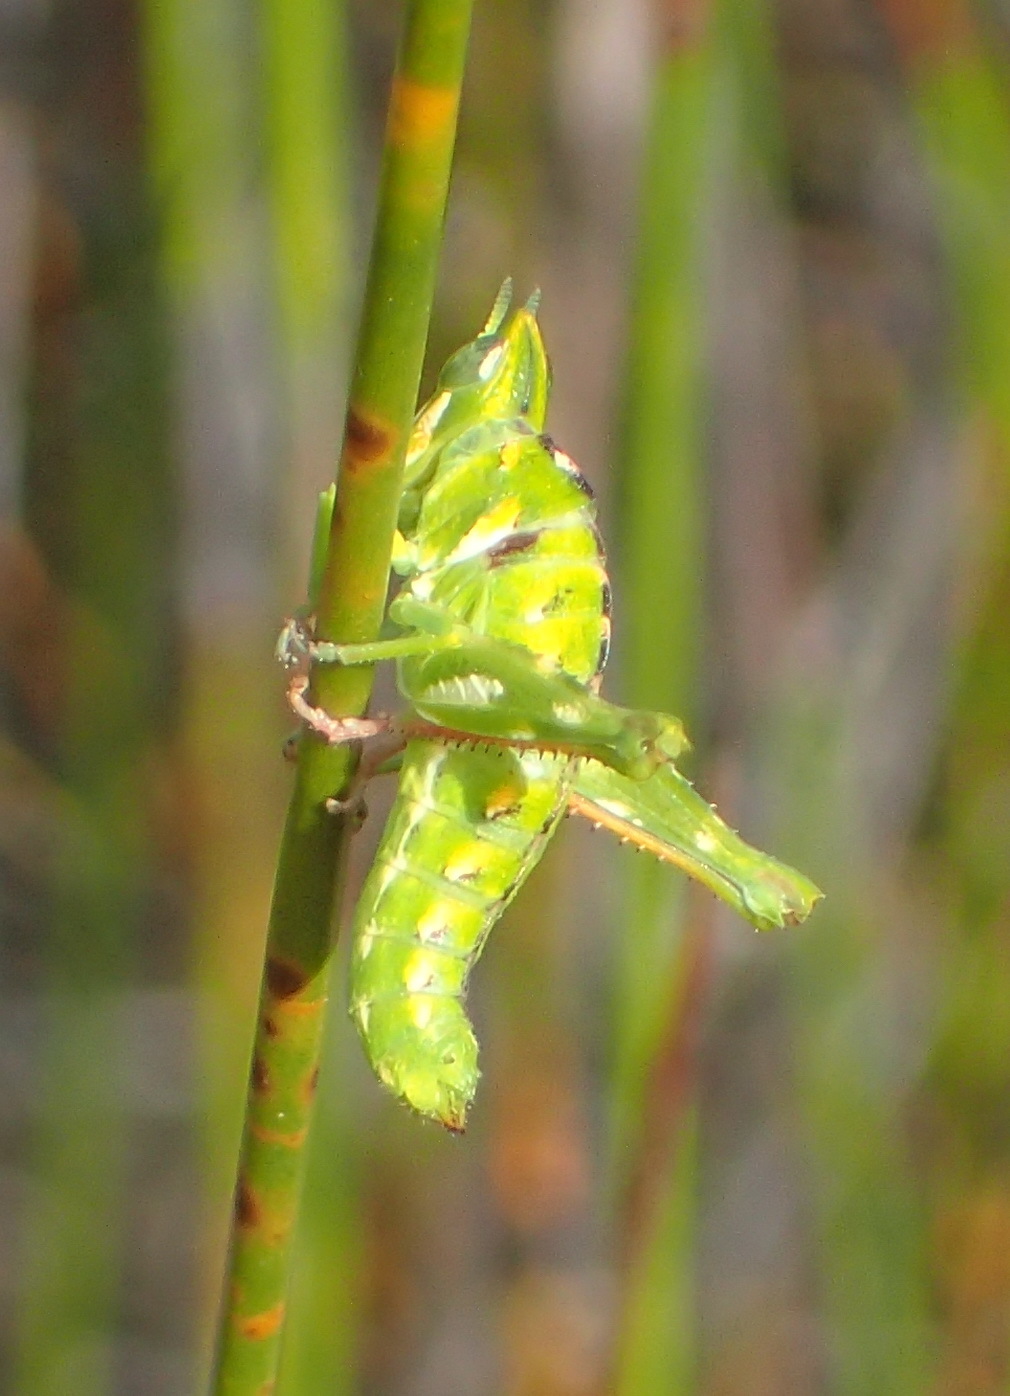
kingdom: Animalia
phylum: Arthropoda
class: Insecta
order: Orthoptera
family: Thericleidae
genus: Thericlesiella
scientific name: Thericlesiella meridionalis
